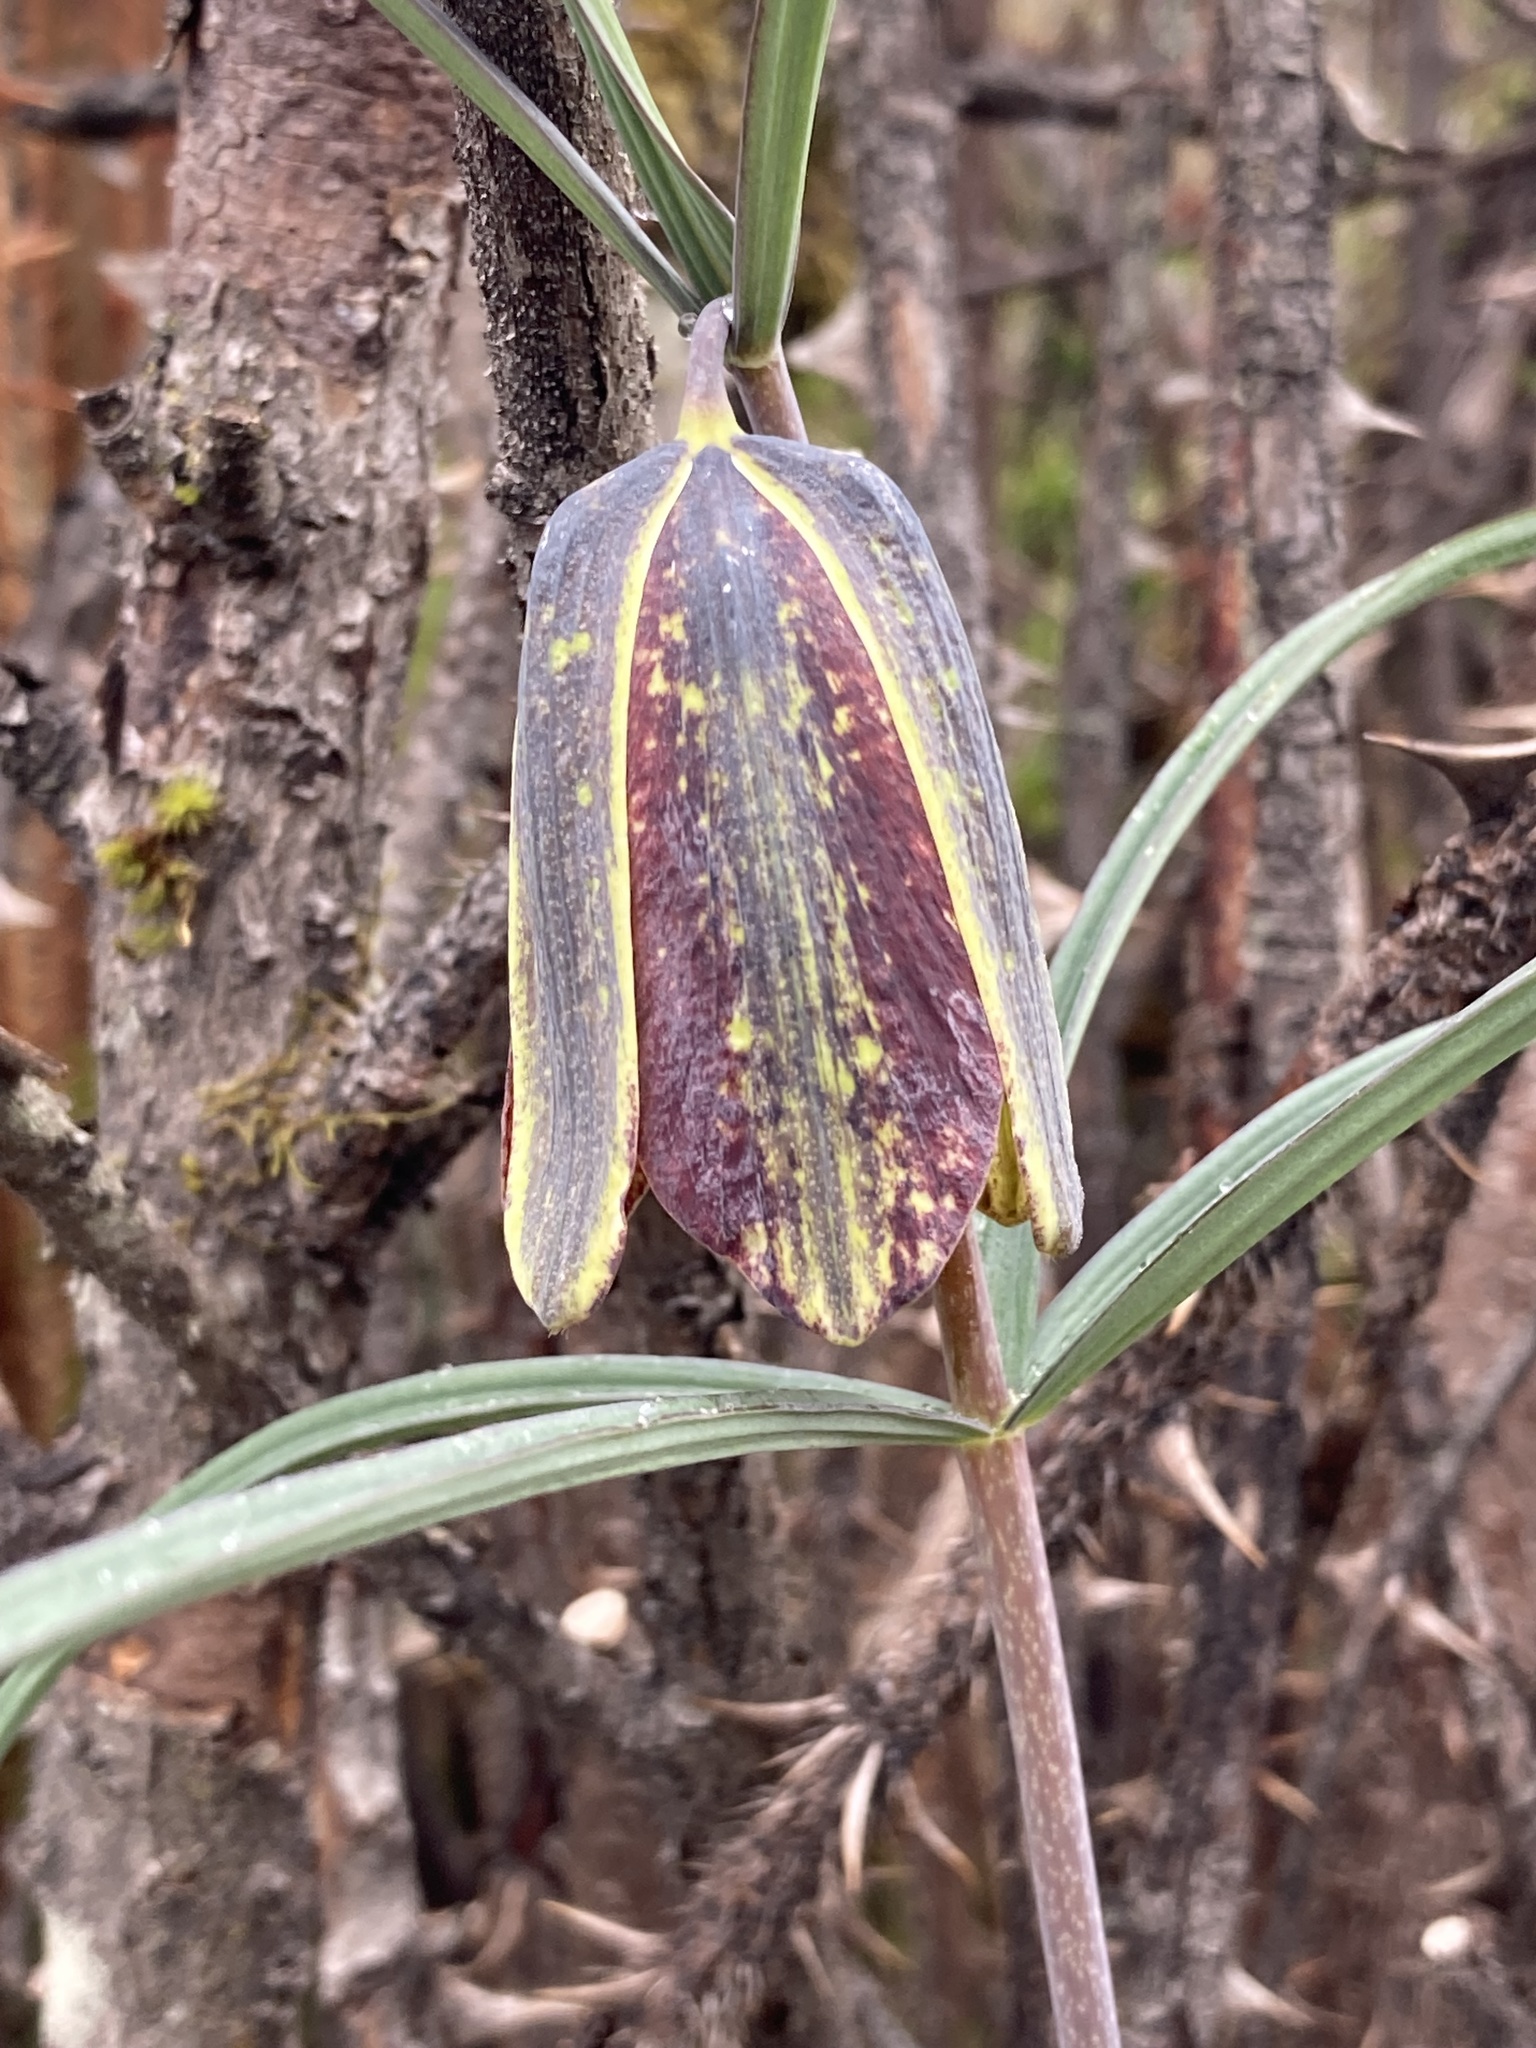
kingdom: Plantae
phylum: Tracheophyta
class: Liliopsida
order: Liliales
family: Liliaceae
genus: Fritillaria
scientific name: Fritillaria cirrhosa
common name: Sichuan fritillary
